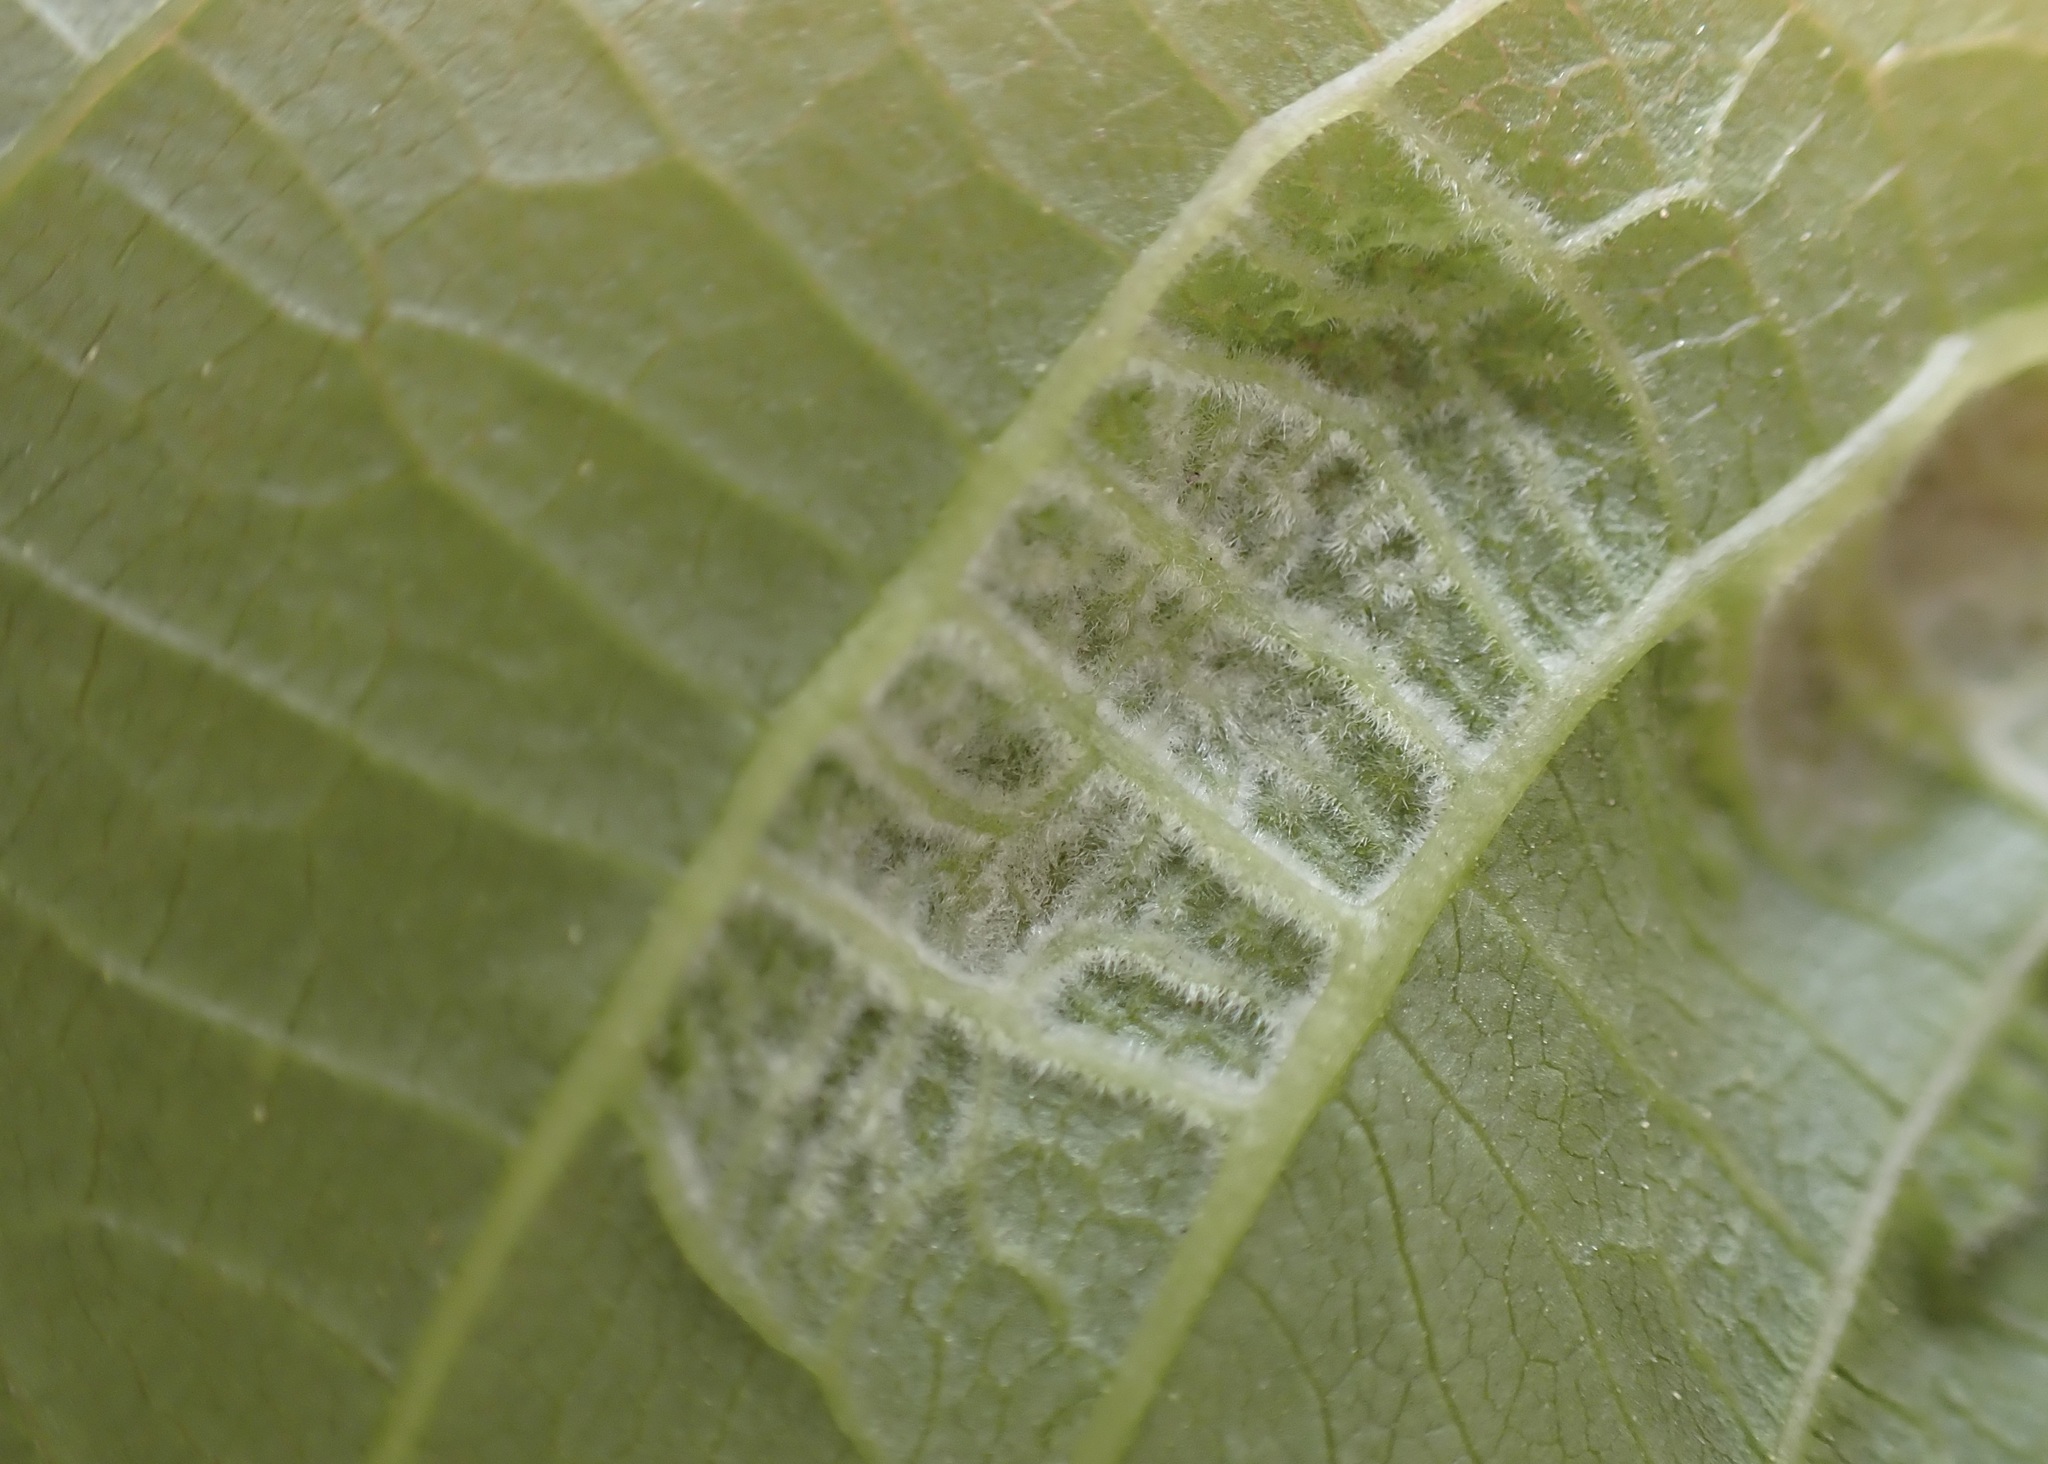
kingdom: Animalia
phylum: Arthropoda
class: Arachnida
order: Trombidiformes
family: Eriophyidae
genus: Aceria
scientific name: Aceria erinea
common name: Persian walnut erineum mite
